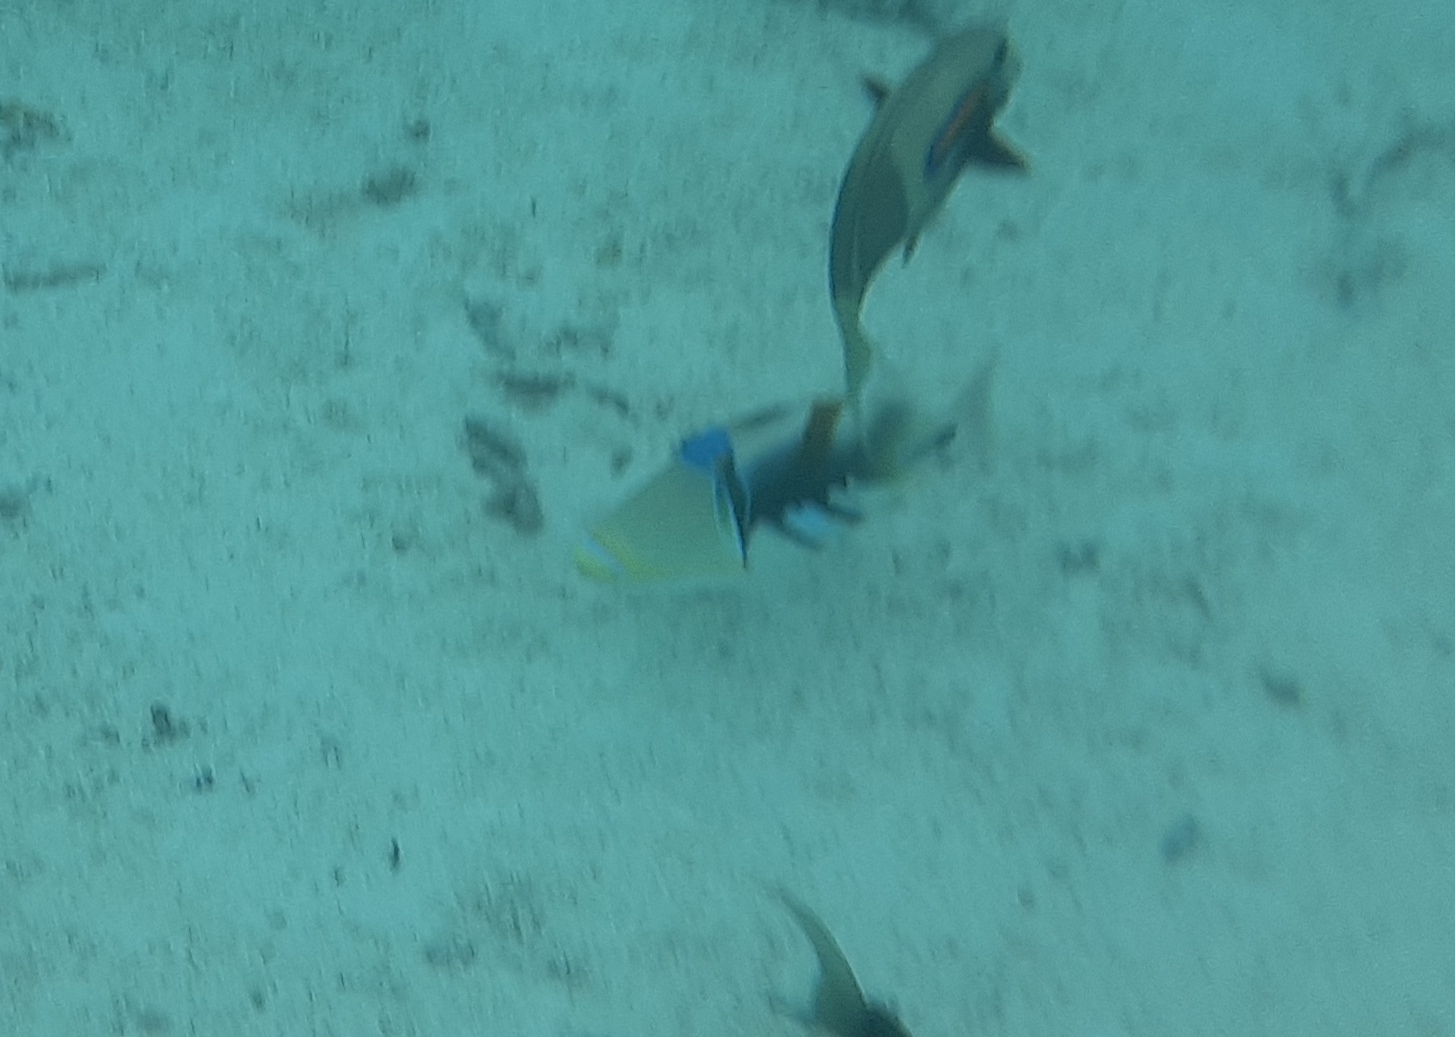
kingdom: Animalia
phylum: Chordata
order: Tetraodontiformes
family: Balistidae
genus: Rhinecanthus
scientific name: Rhinecanthus aculeatus
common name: White-banded triggerfish
